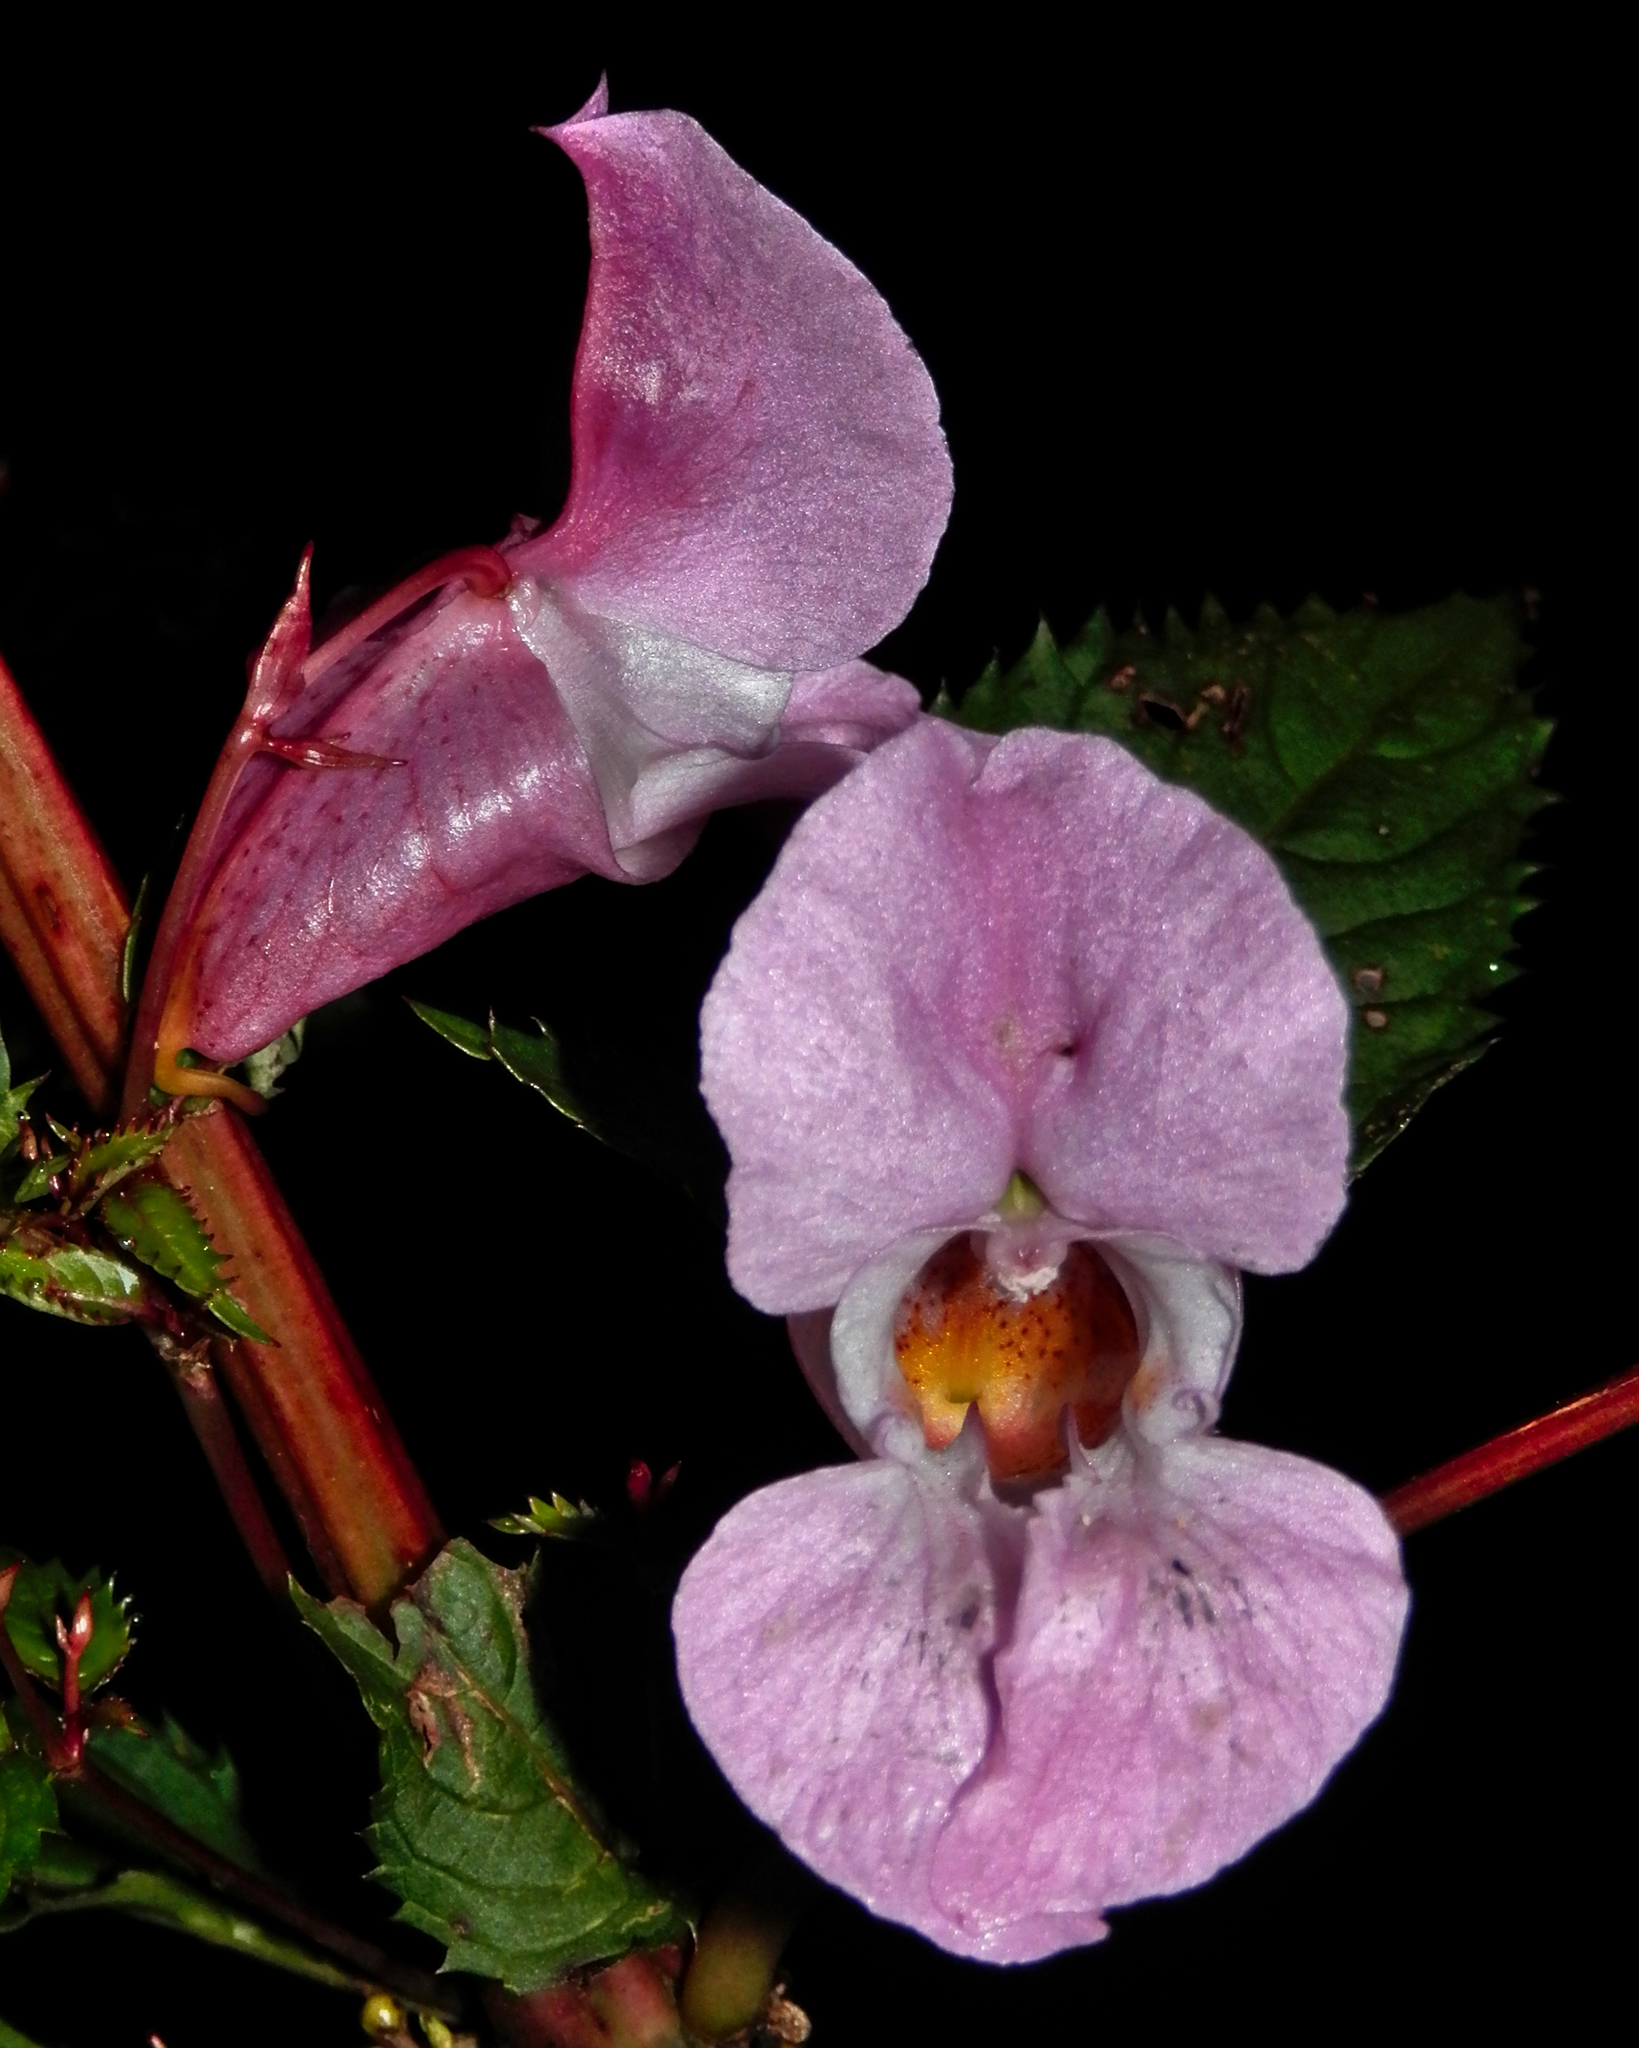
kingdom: Plantae
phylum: Tracheophyta
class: Magnoliopsida
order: Ericales
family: Balsaminaceae
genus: Impatiens
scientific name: Impatiens glandulifera
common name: Himalayan balsam
